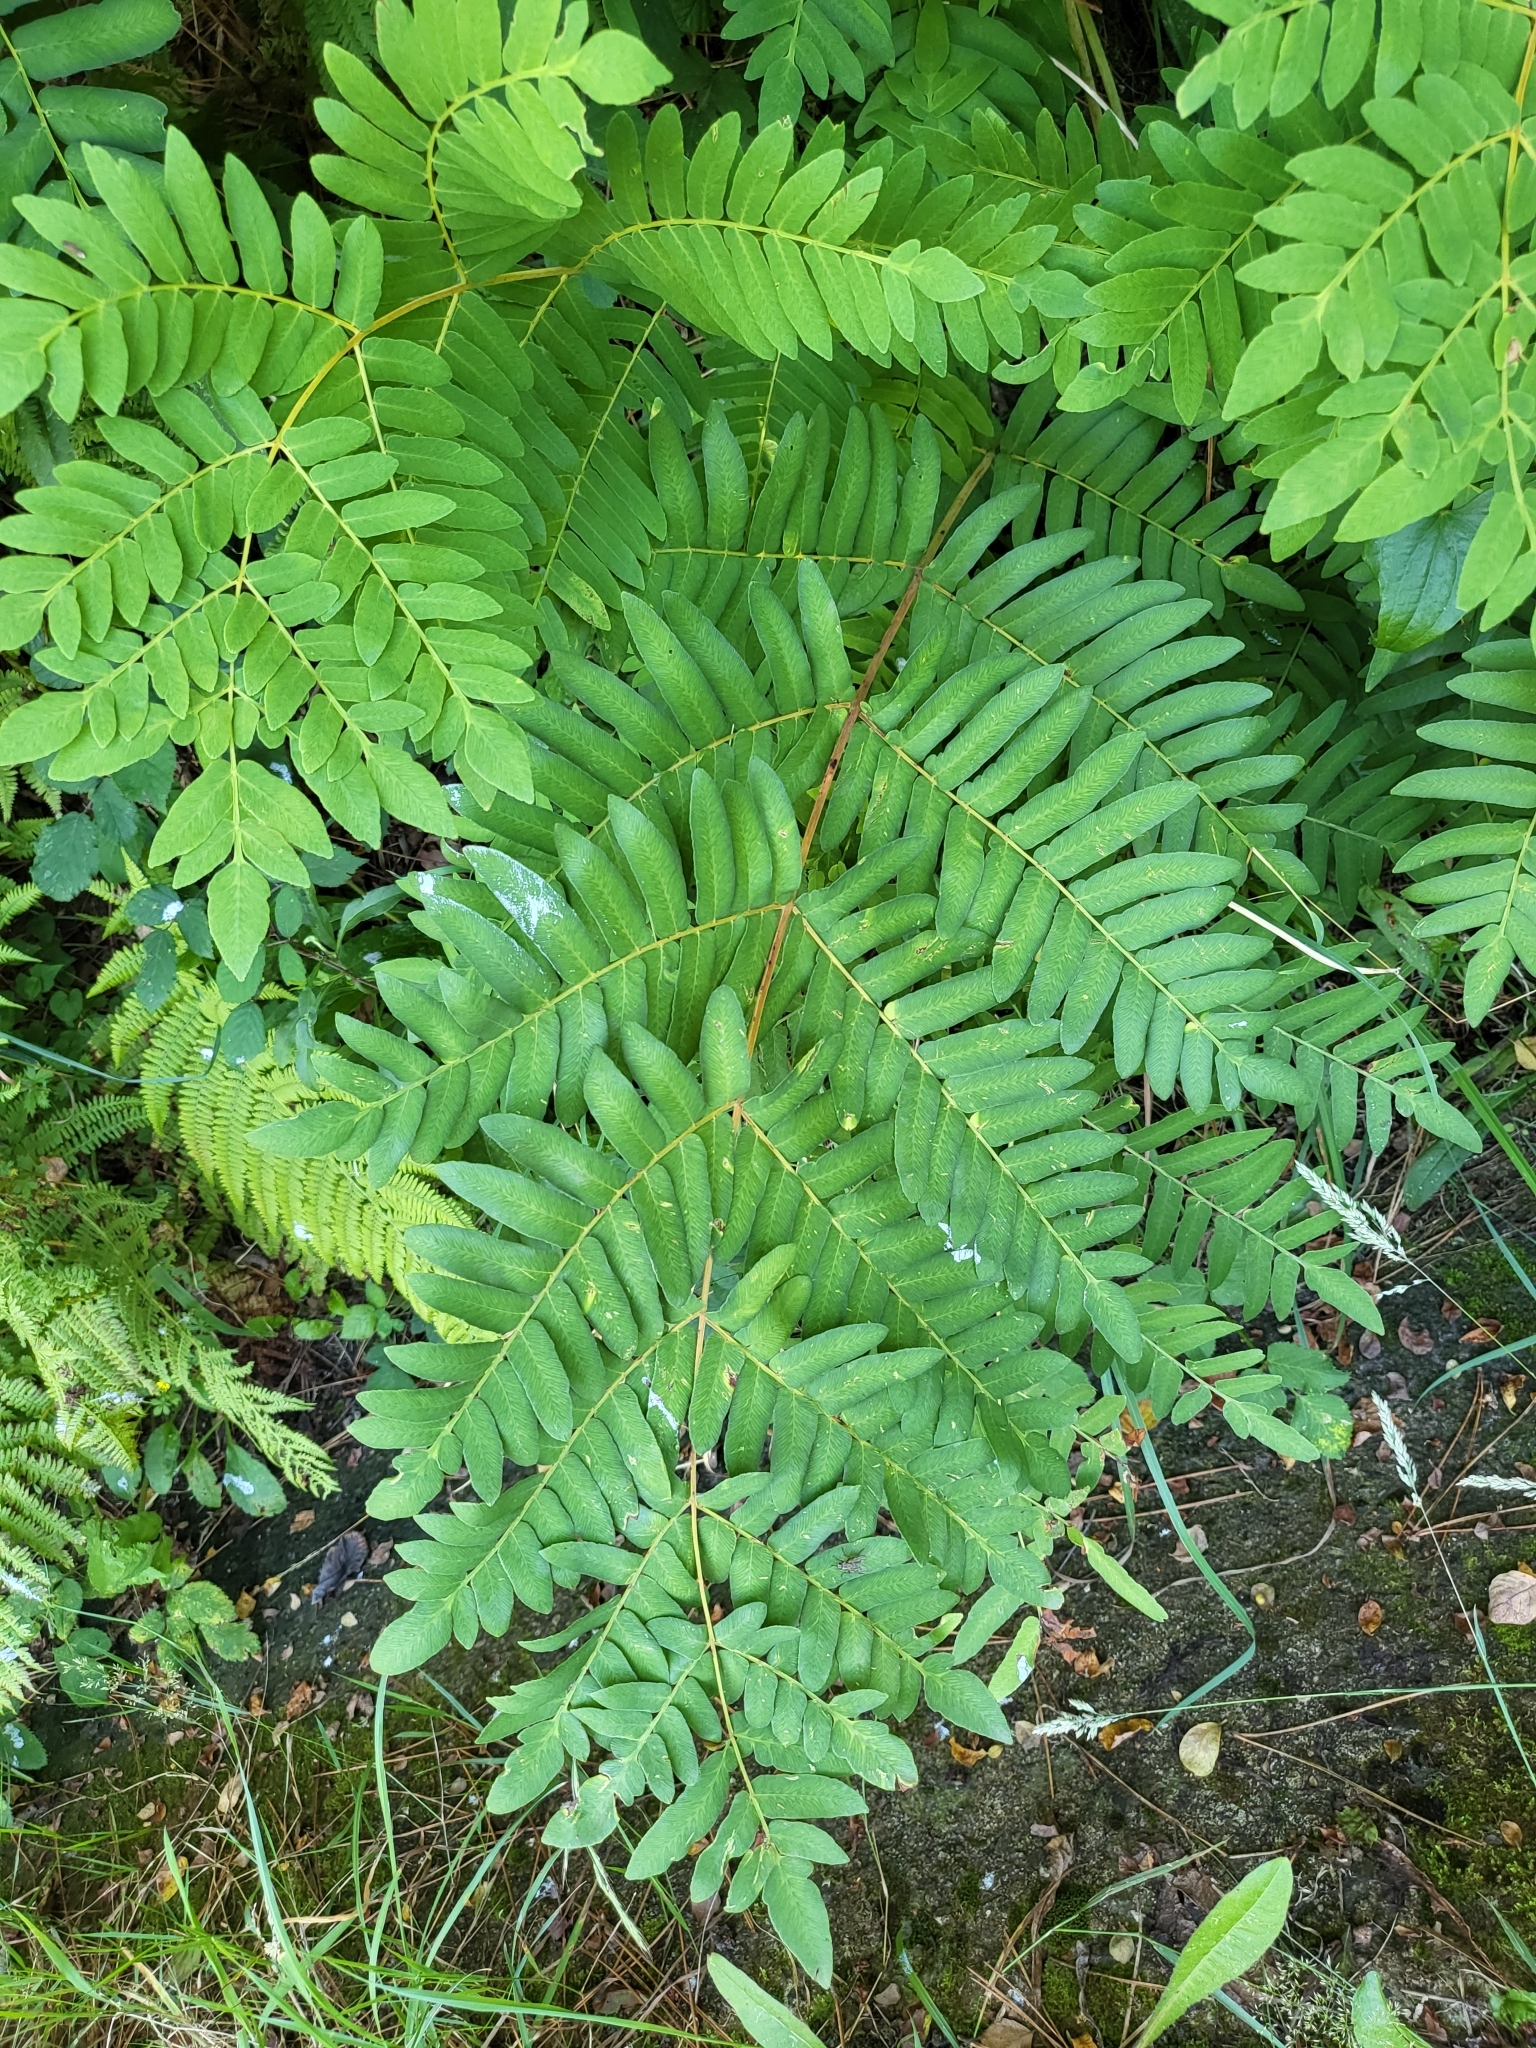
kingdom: Plantae
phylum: Tracheophyta
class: Polypodiopsida
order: Osmundales
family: Osmundaceae
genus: Osmunda
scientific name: Osmunda regalis
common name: Royal fern
